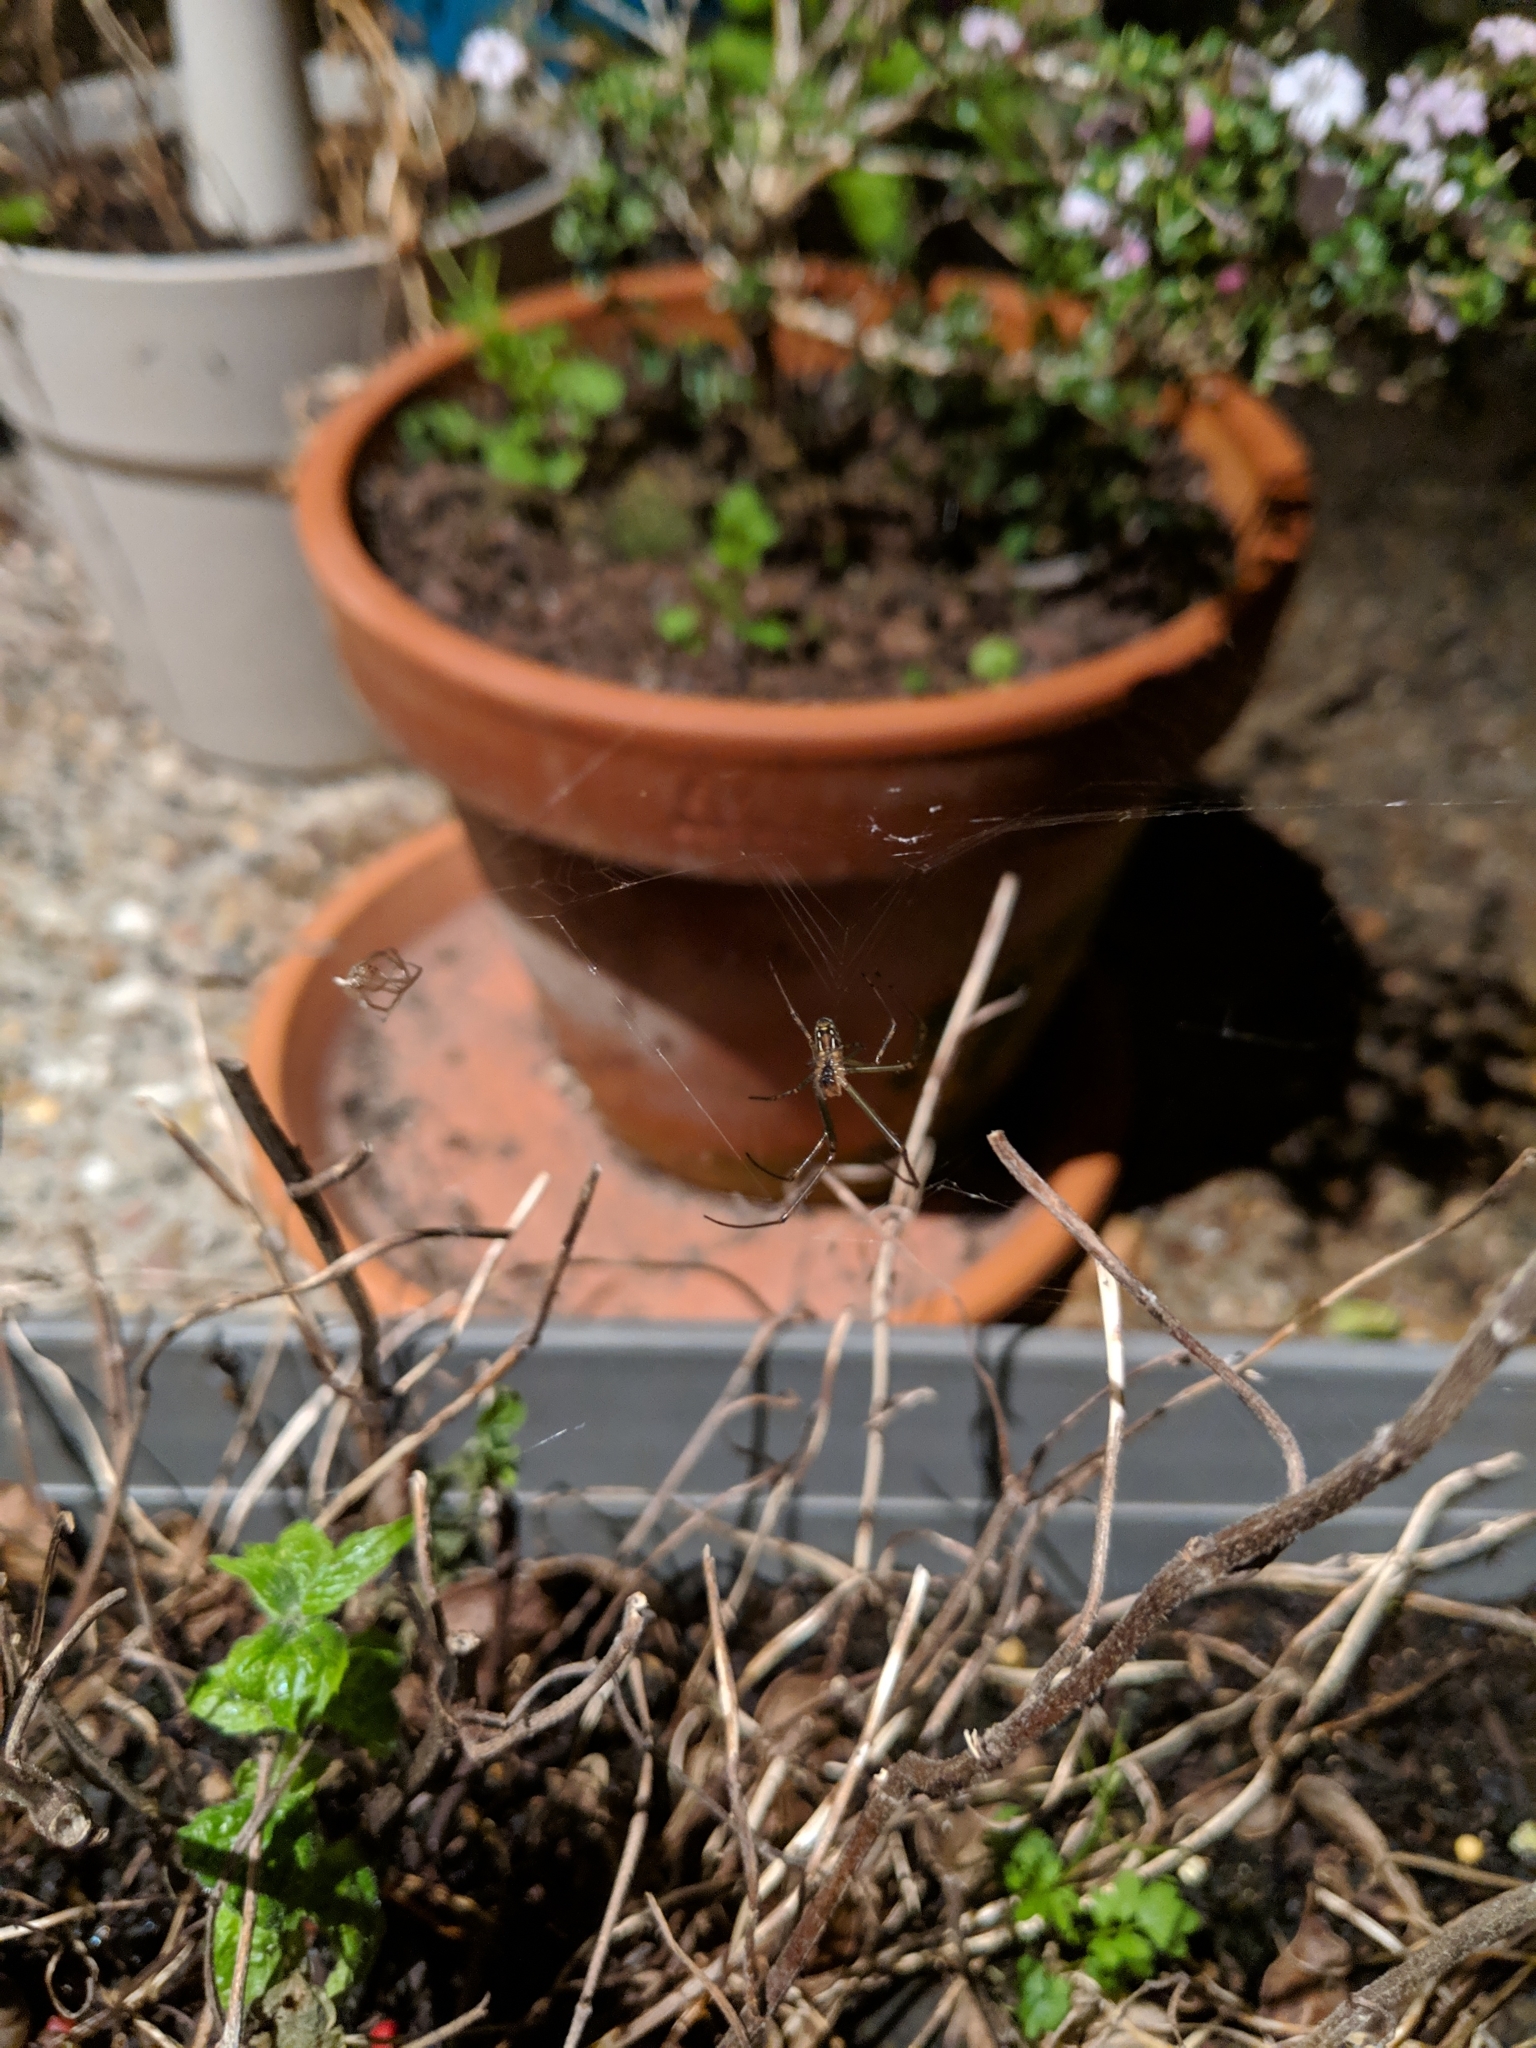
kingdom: Animalia
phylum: Arthropoda
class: Arachnida
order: Araneae
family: Tetragnathidae
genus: Leucauge
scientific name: Leucauge dromedaria
